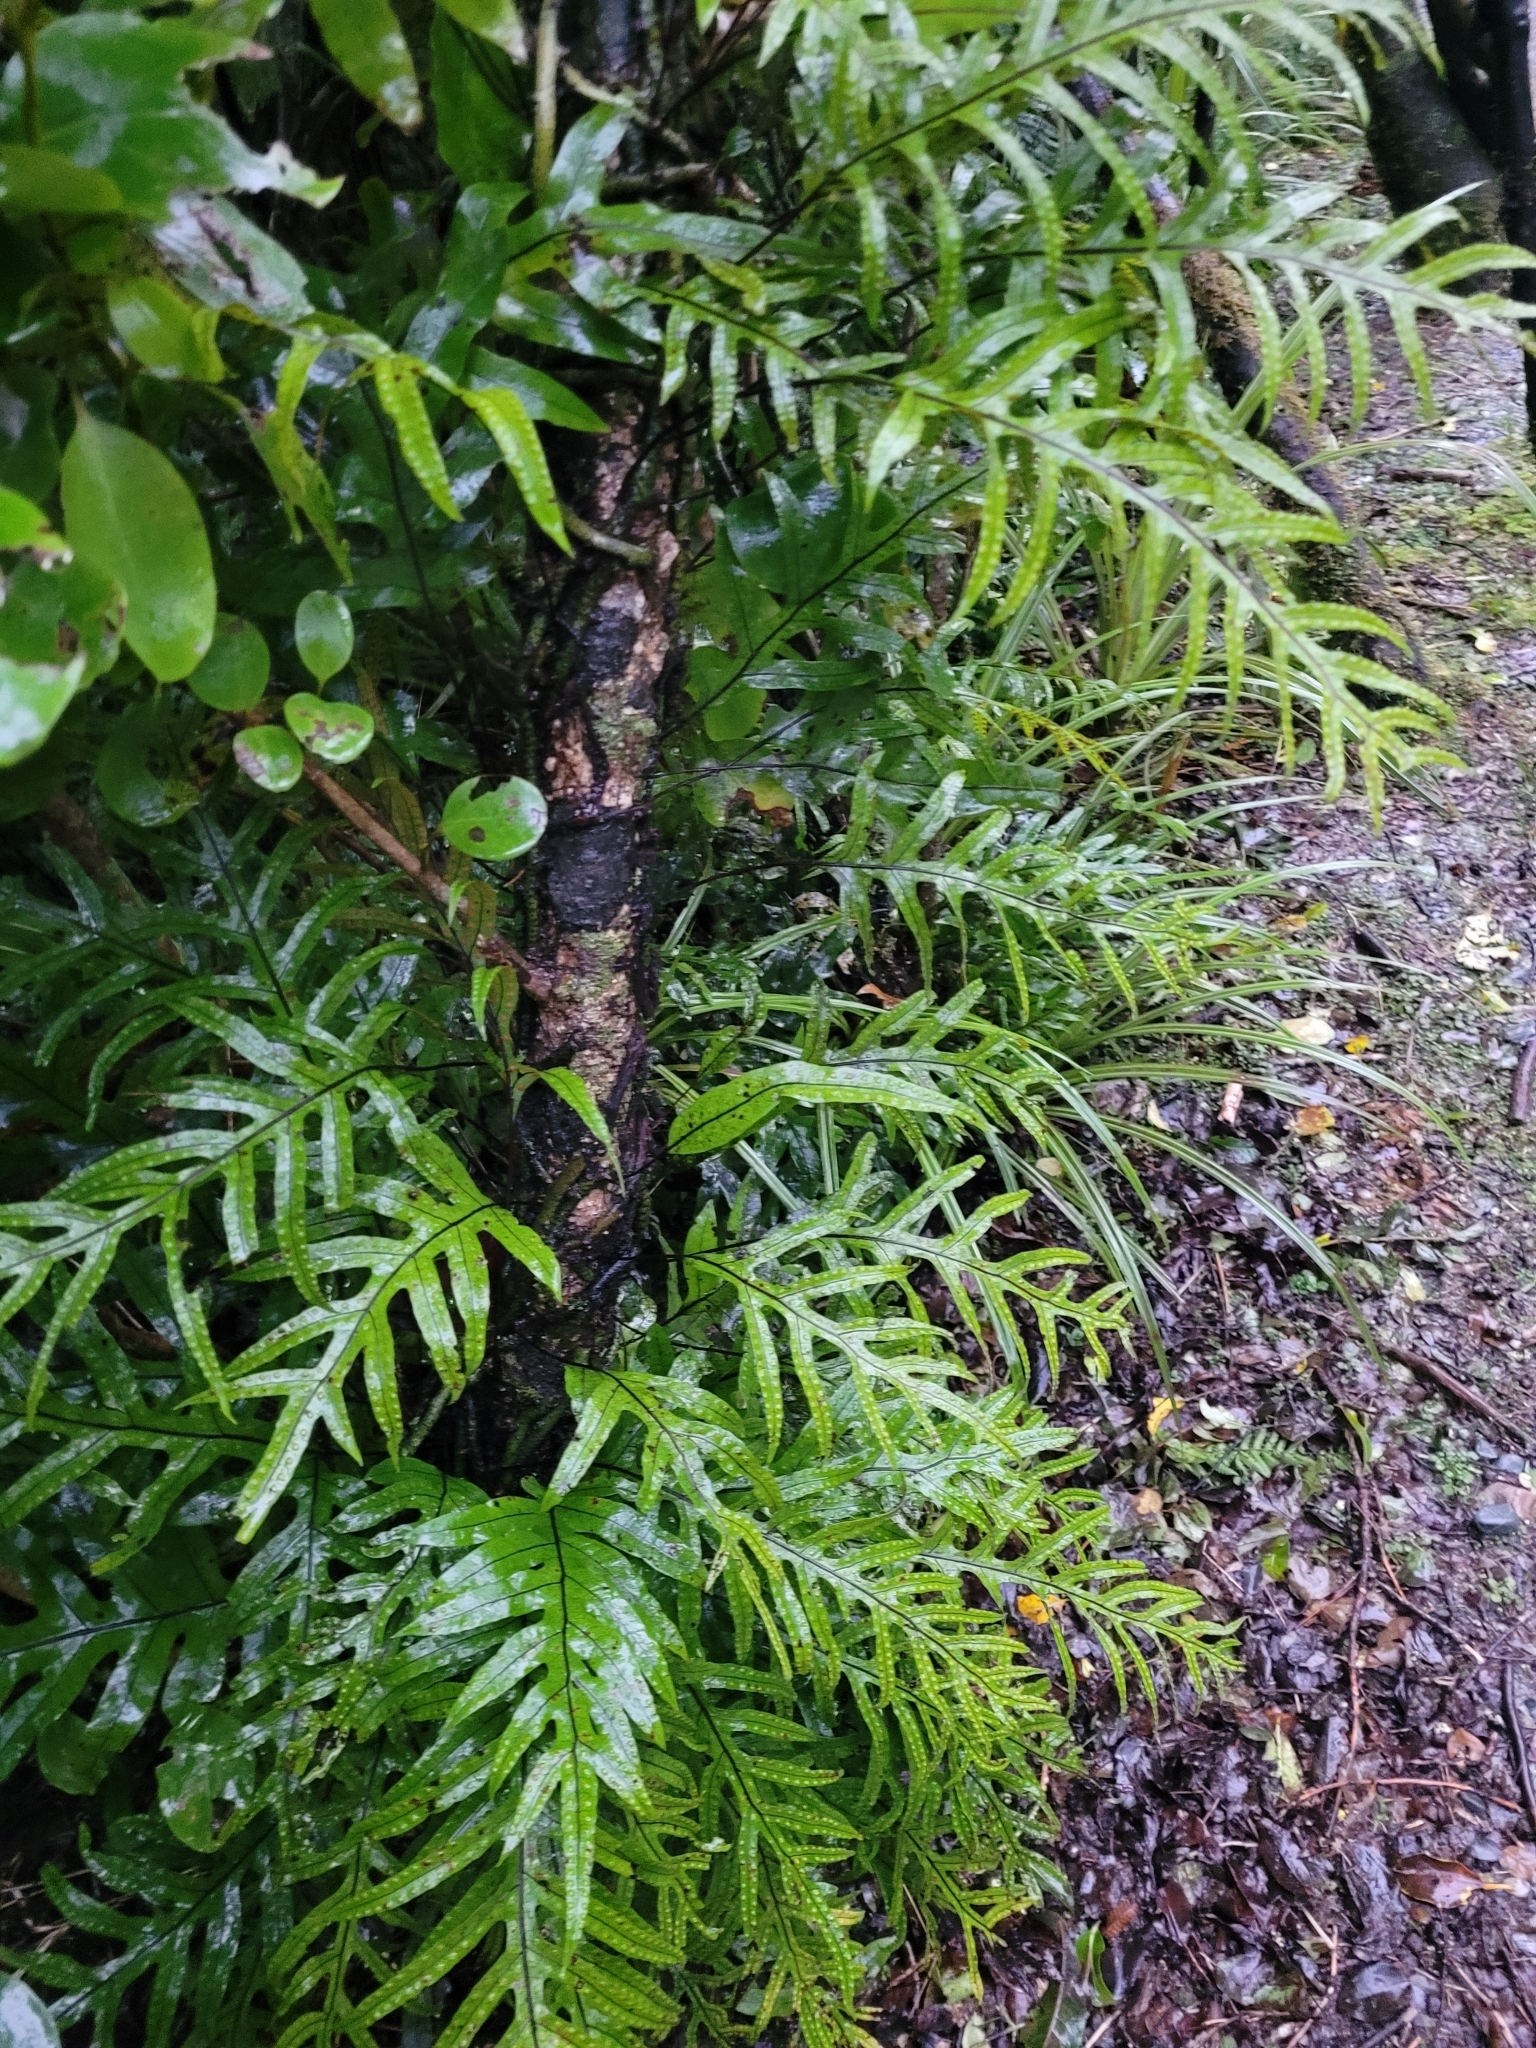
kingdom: Plantae
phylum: Tracheophyta
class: Polypodiopsida
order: Polypodiales
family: Polypodiaceae
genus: Lecanopteris
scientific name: Lecanopteris pustulata
